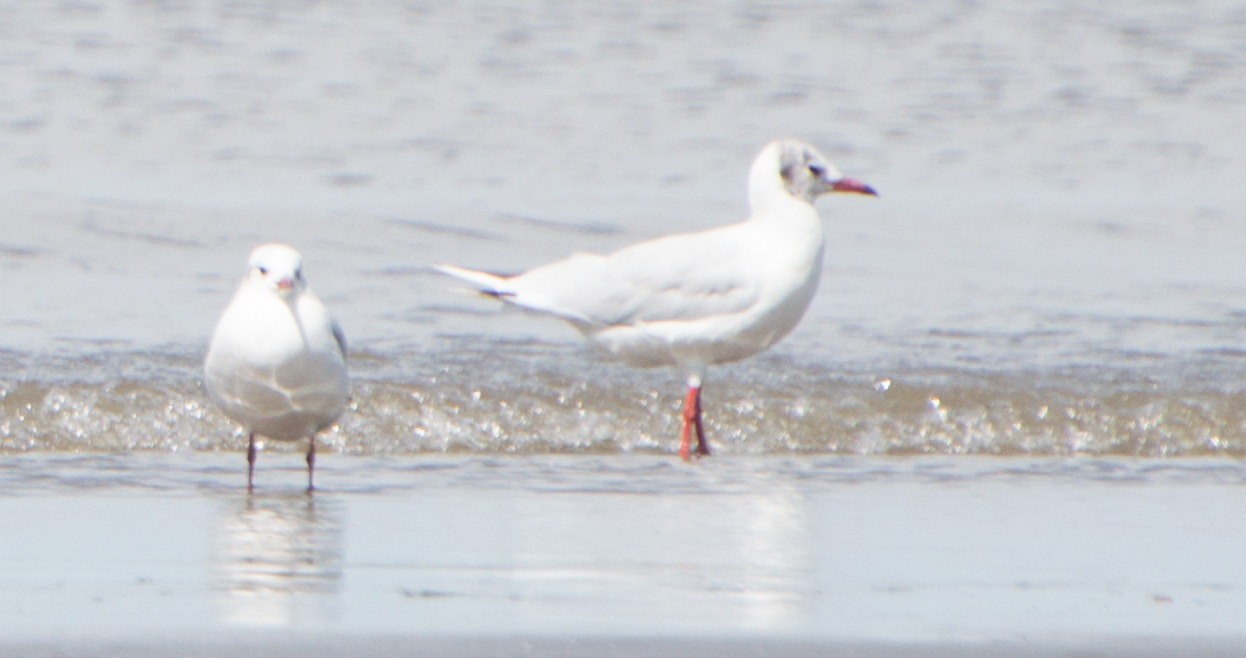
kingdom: Animalia
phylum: Chordata
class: Aves
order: Charadriiformes
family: Laridae
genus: Chroicocephalus
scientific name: Chroicocephalus maculipennis
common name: Brown-hooded gull
